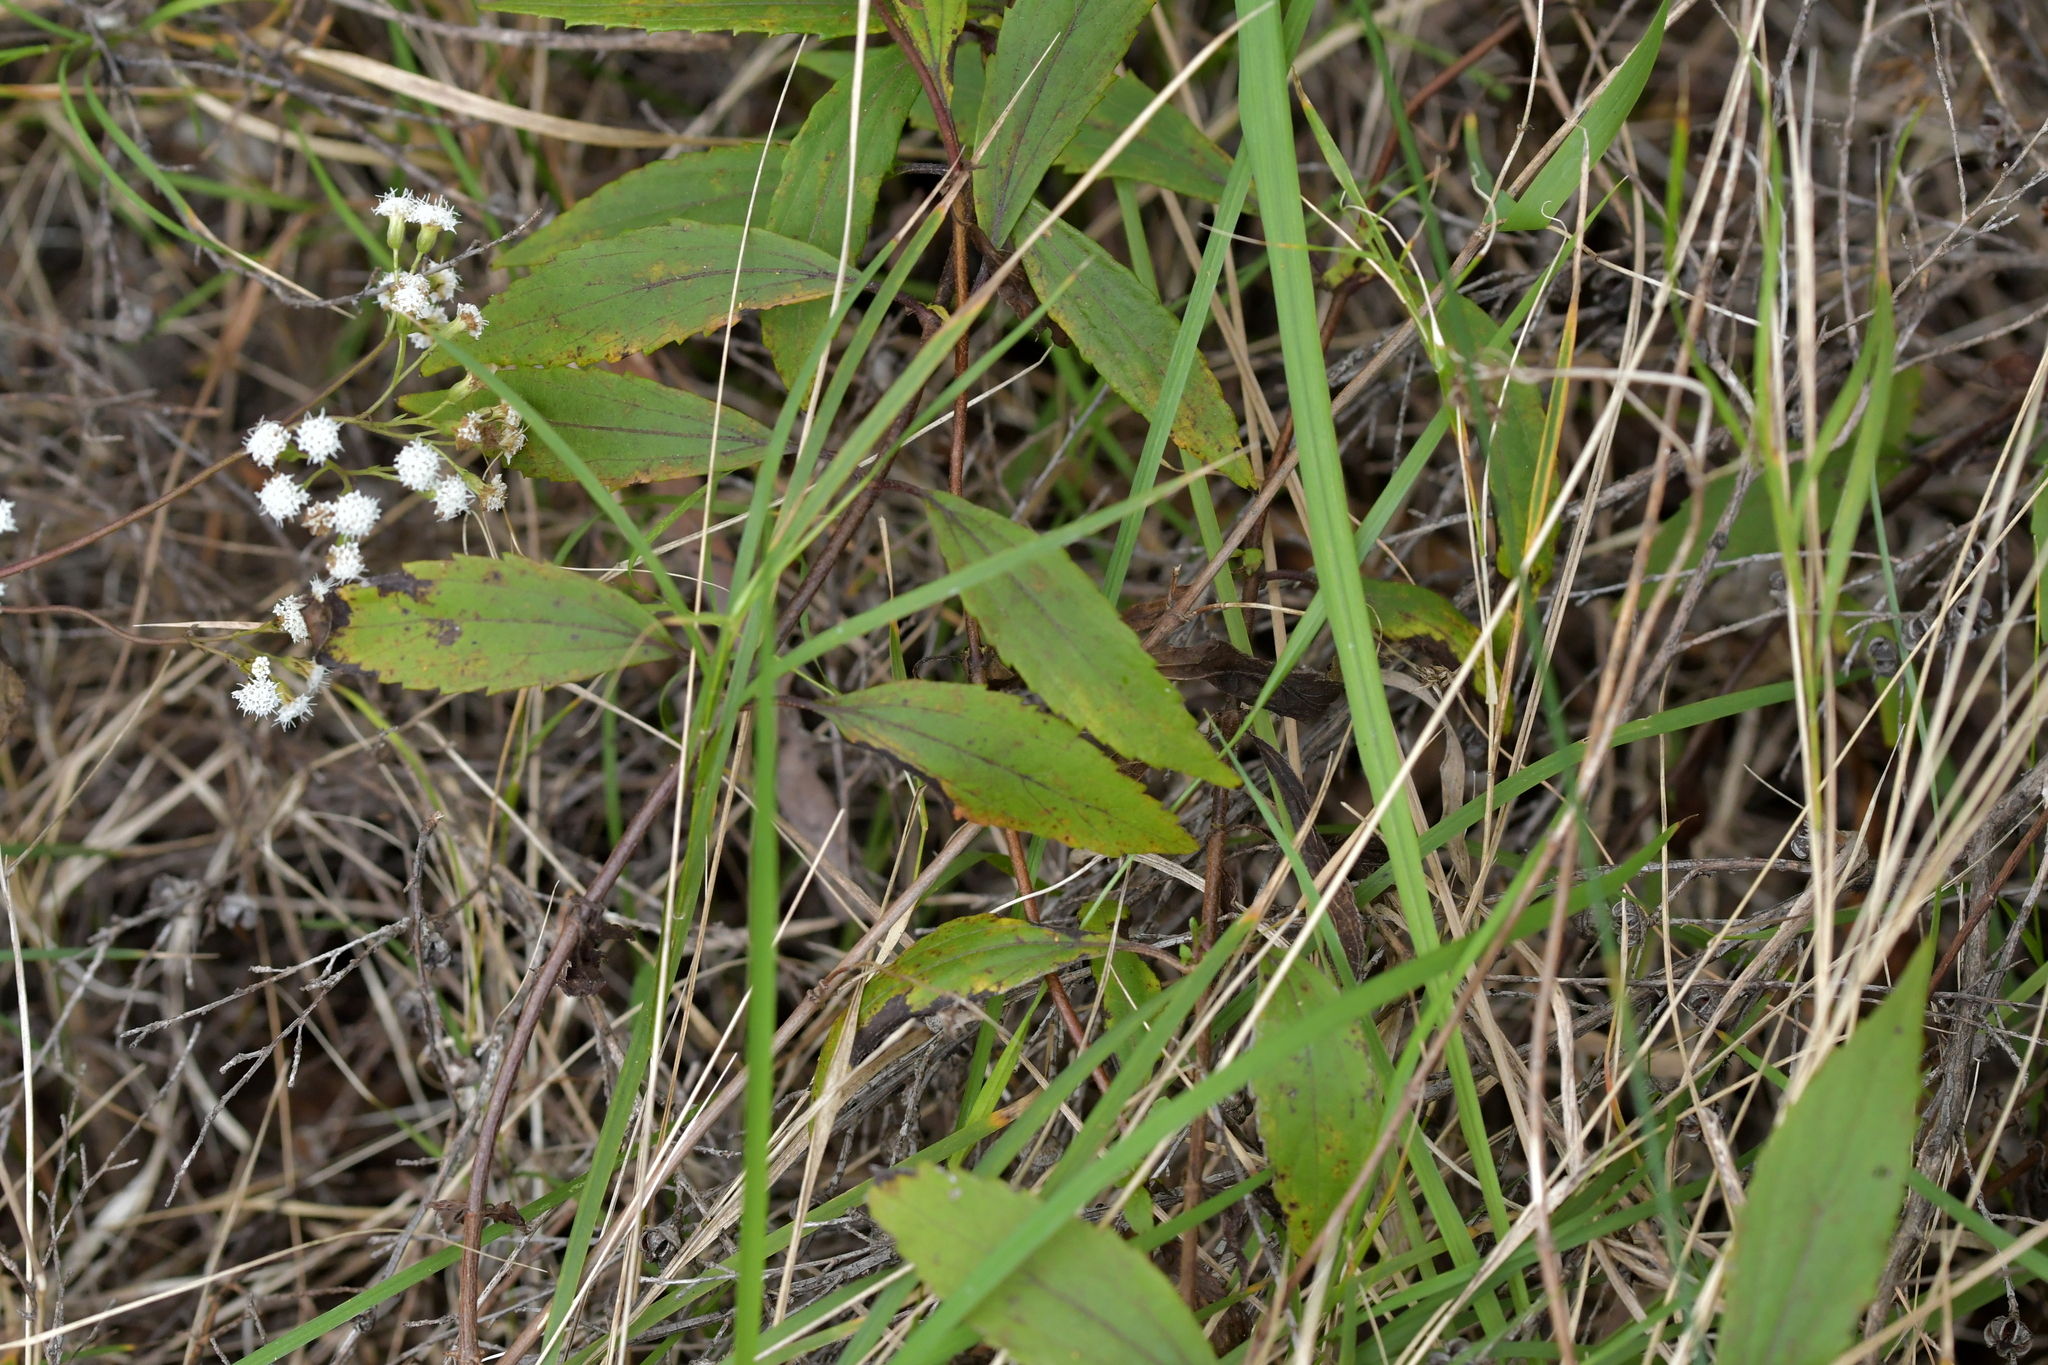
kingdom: Plantae
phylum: Tracheophyta
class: Magnoliopsida
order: Asterales
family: Asteraceae
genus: Ageratina
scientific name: Ageratina riparia
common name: Creeping croftonweed
